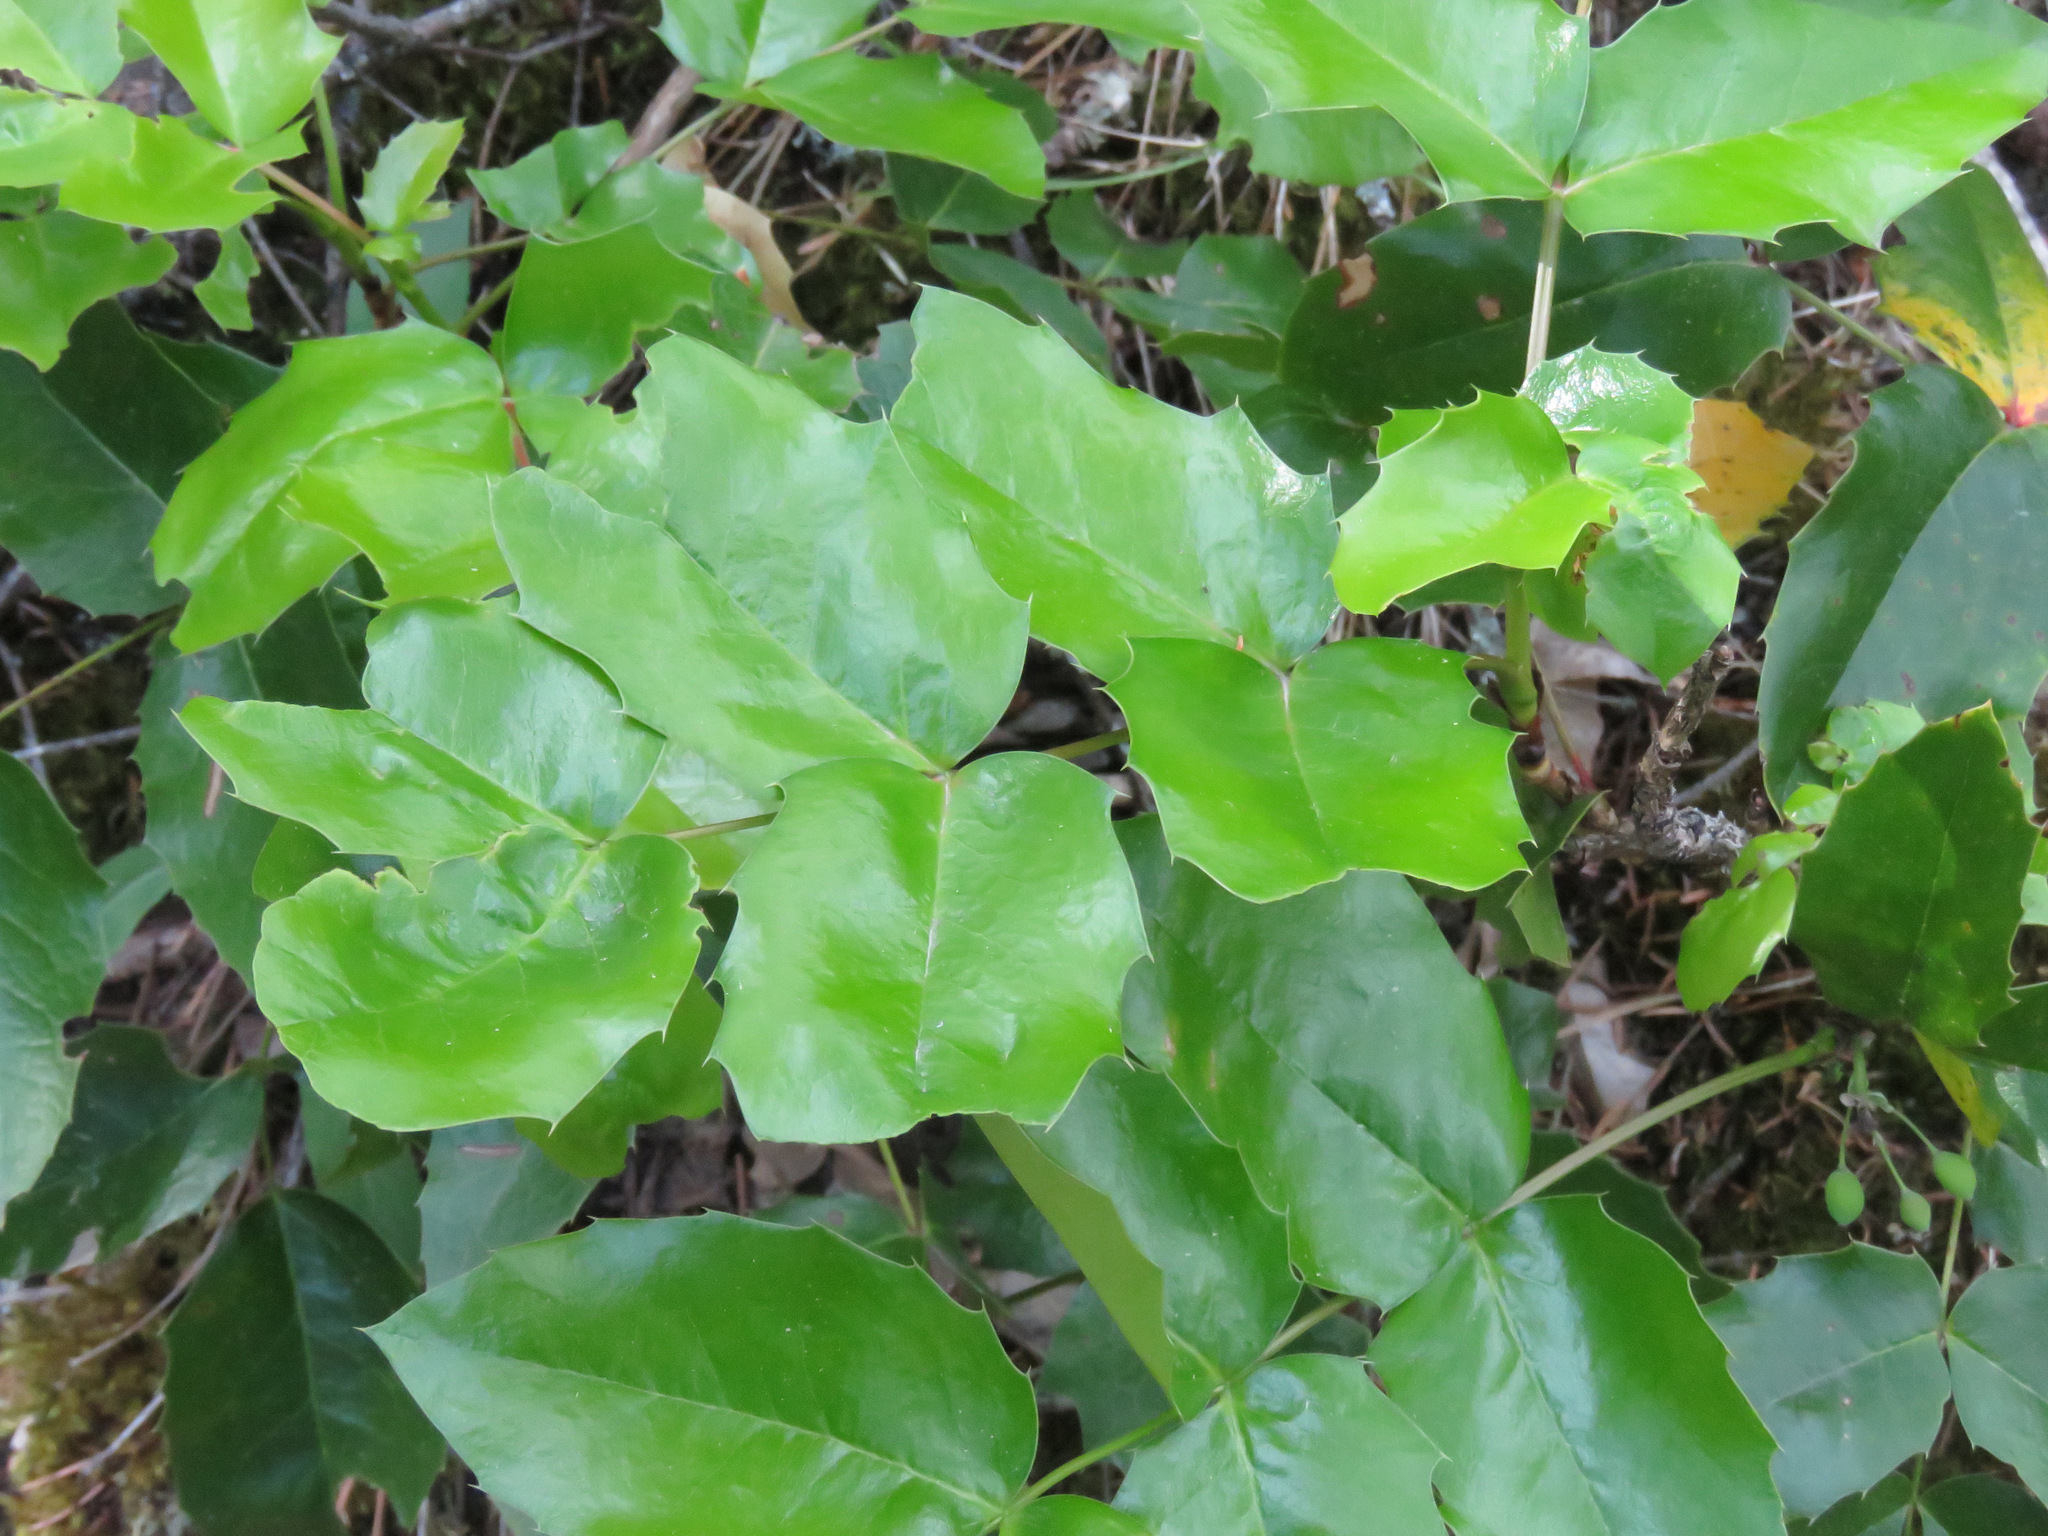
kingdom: Plantae
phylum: Tracheophyta
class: Magnoliopsida
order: Ranunculales
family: Berberidaceae
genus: Mahonia
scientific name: Mahonia aquifolium
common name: Oregon-grape
